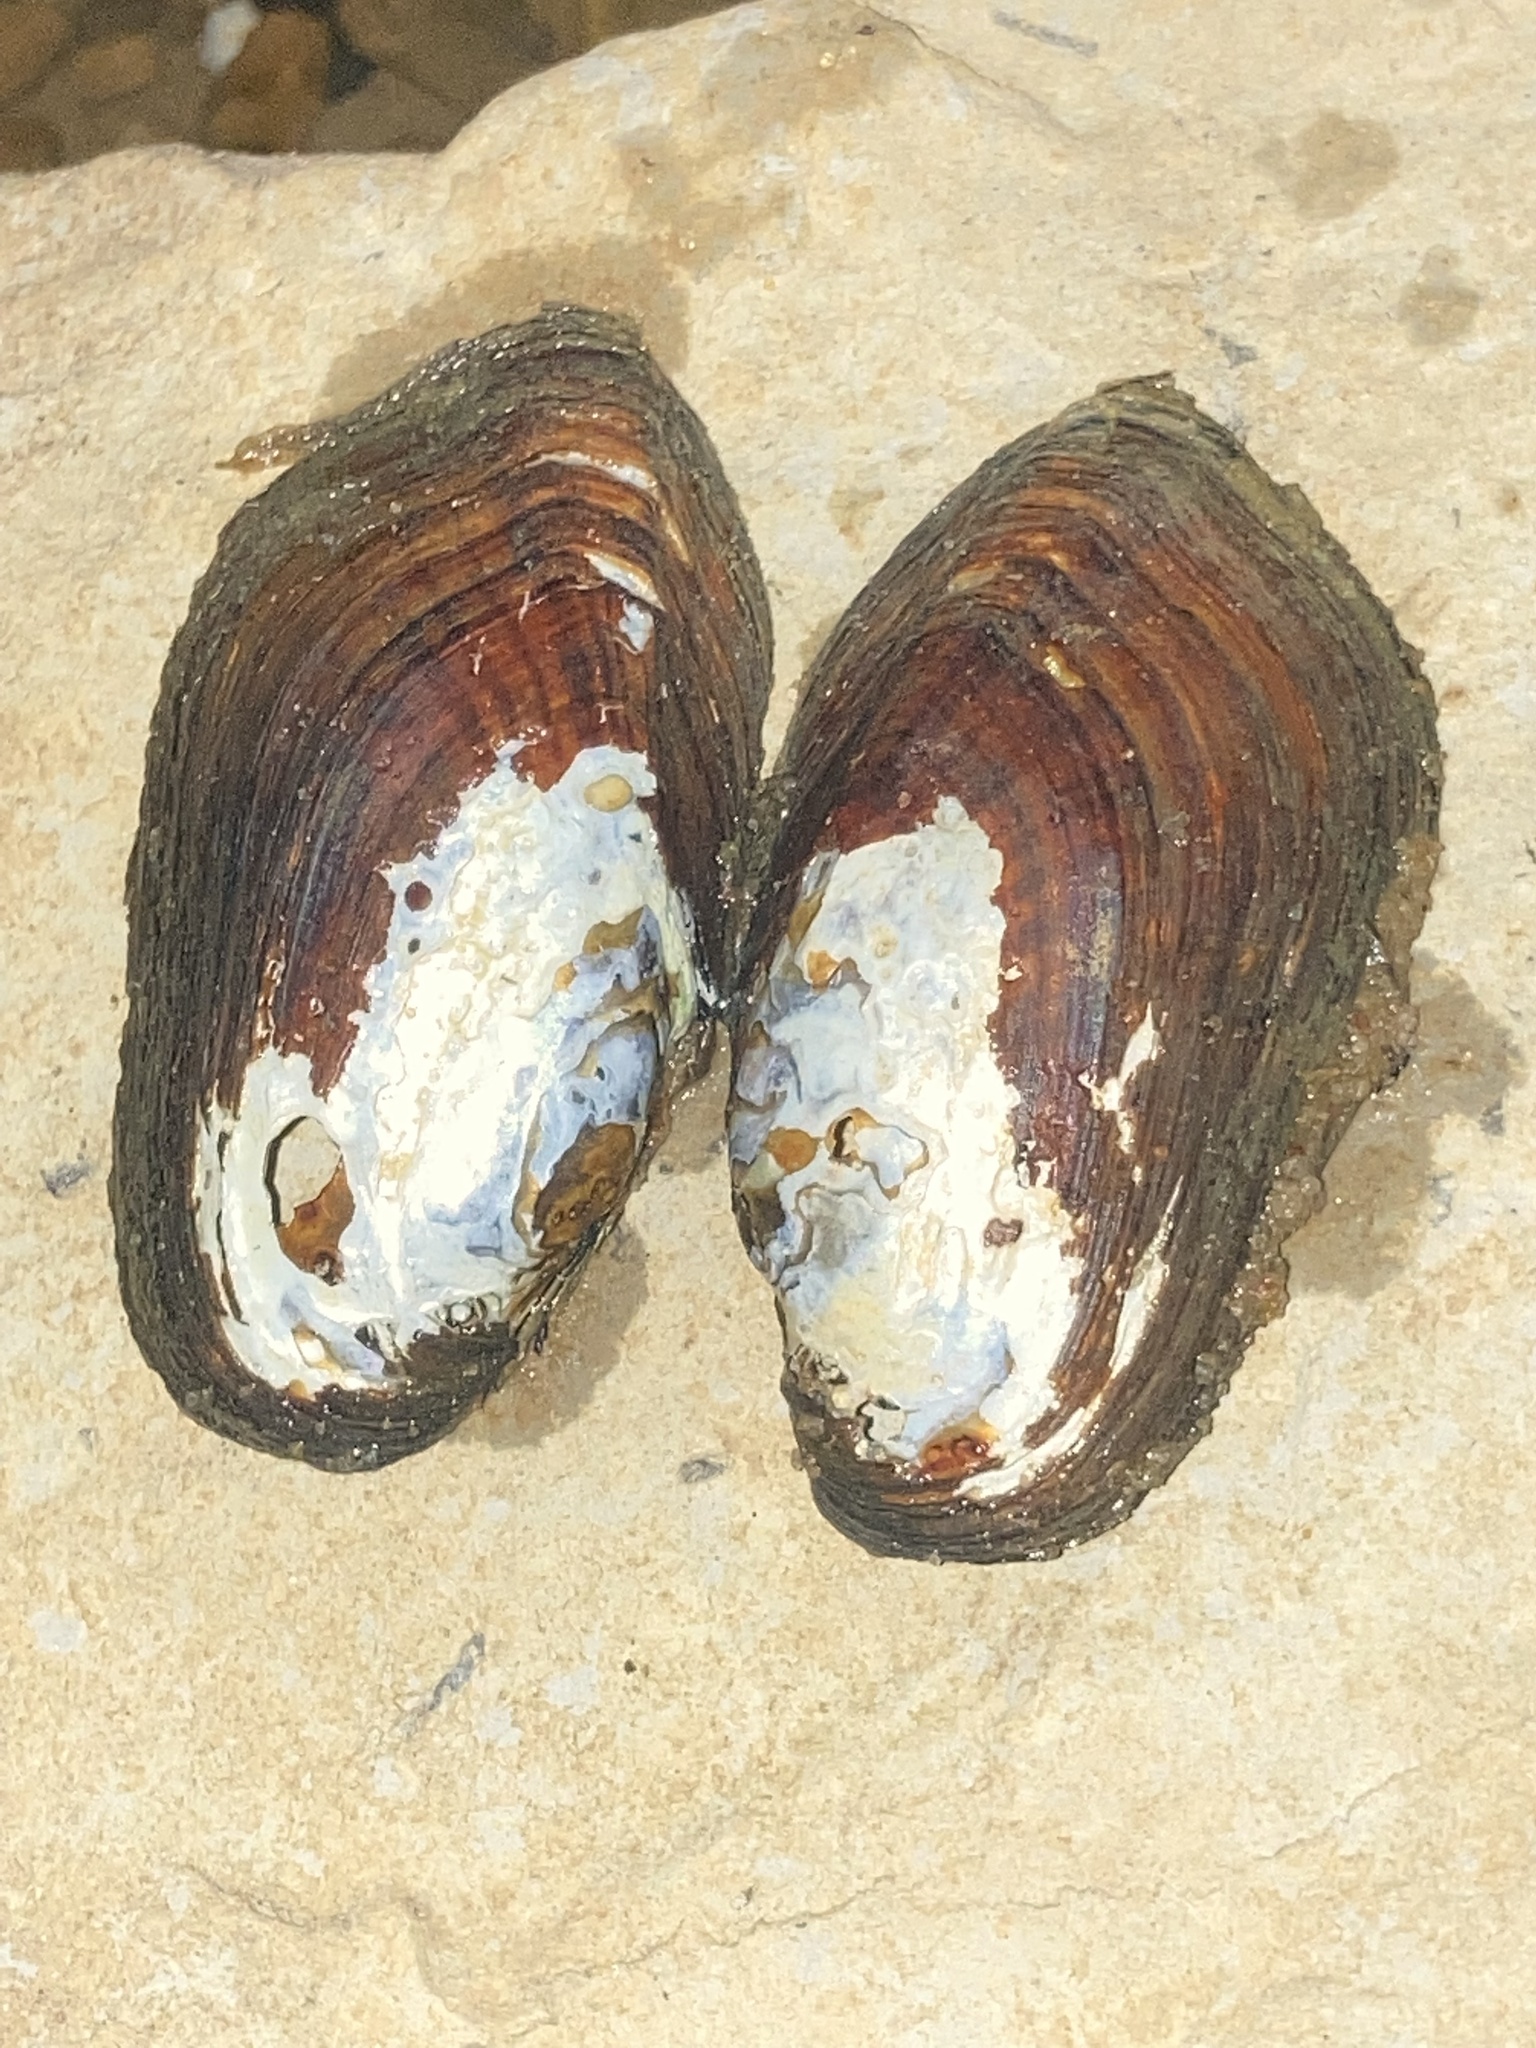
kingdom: Animalia
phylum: Mollusca
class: Bivalvia
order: Unionida
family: Unionidae
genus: Sagittunio
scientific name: Sagittunio subrostratus
